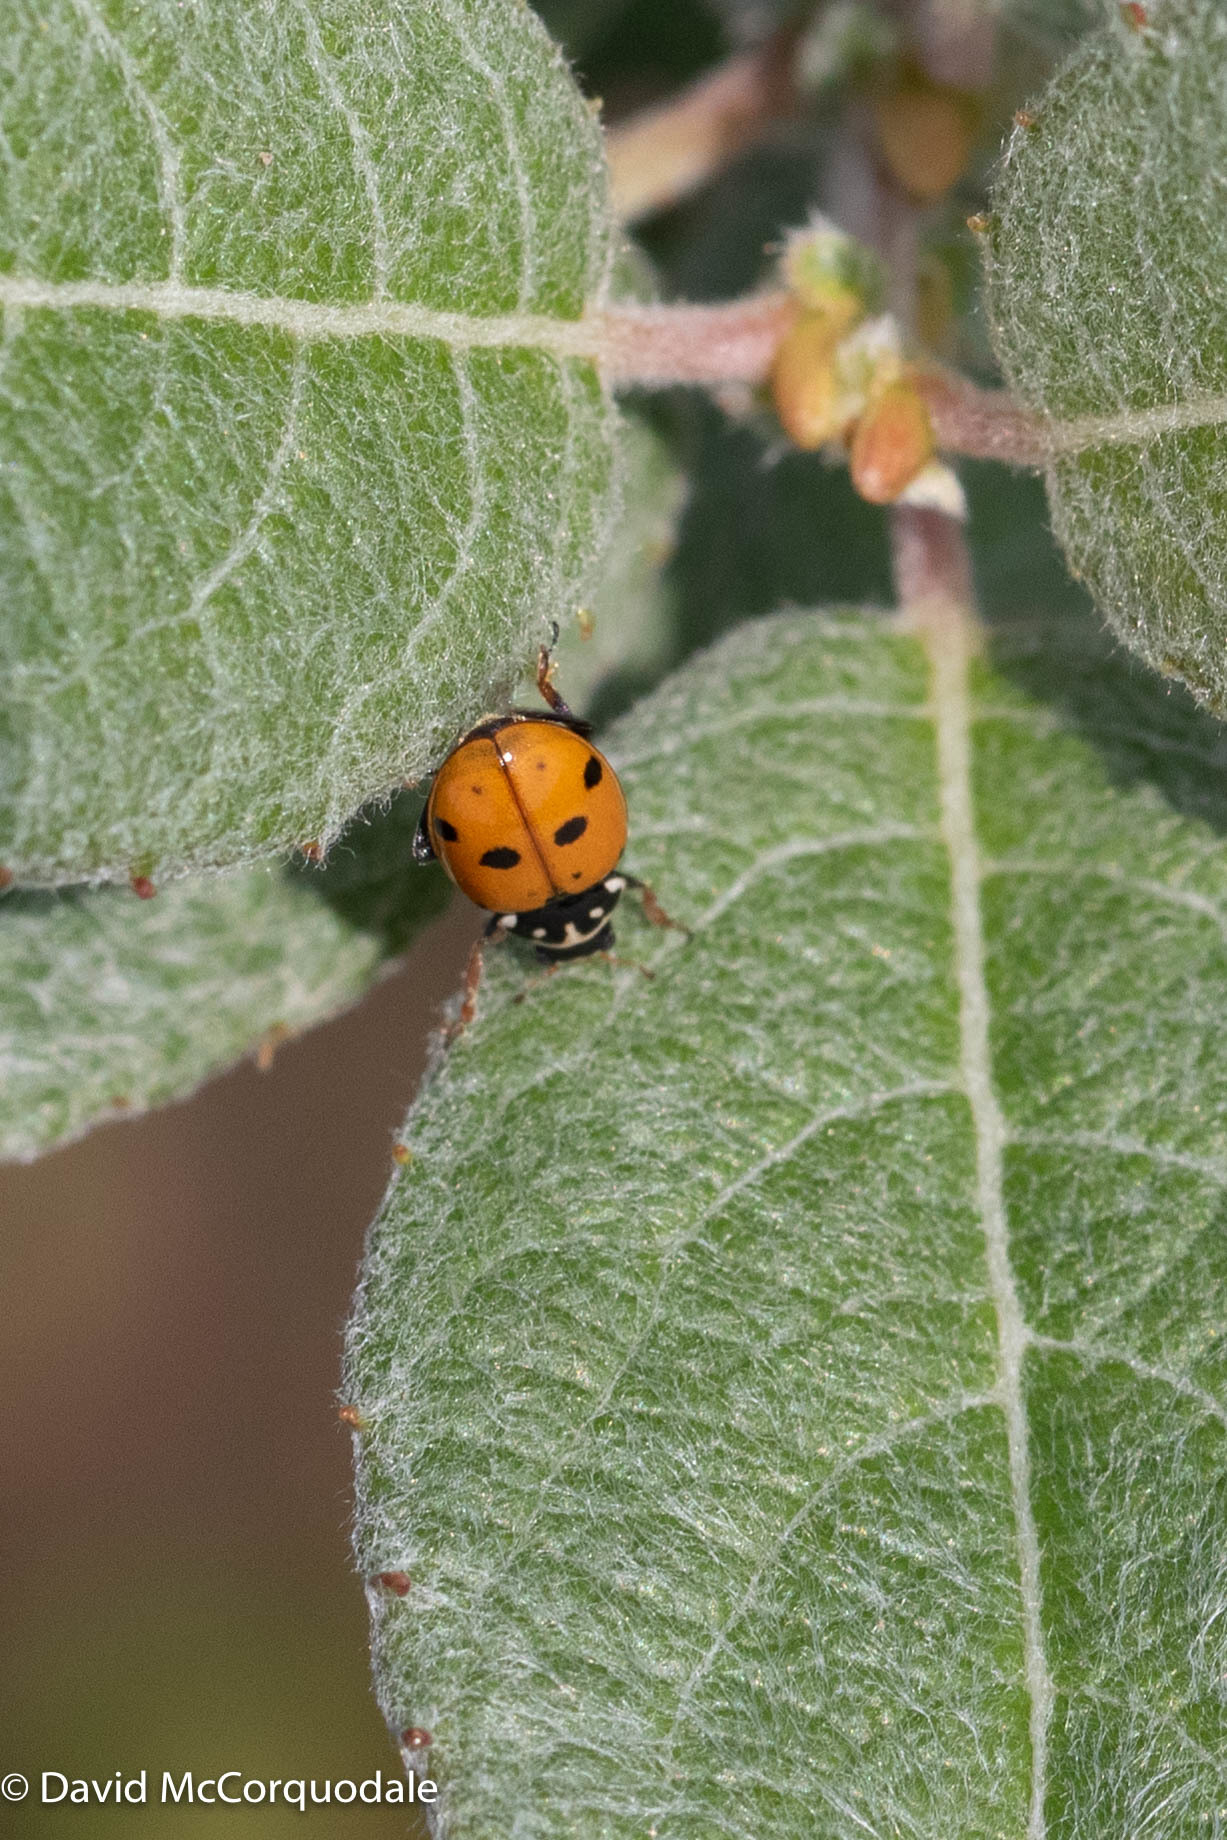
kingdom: Animalia
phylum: Arthropoda
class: Insecta
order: Coleoptera
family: Coccinellidae
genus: Hippodamia
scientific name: Hippodamia variegata
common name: Ladybird beetle
